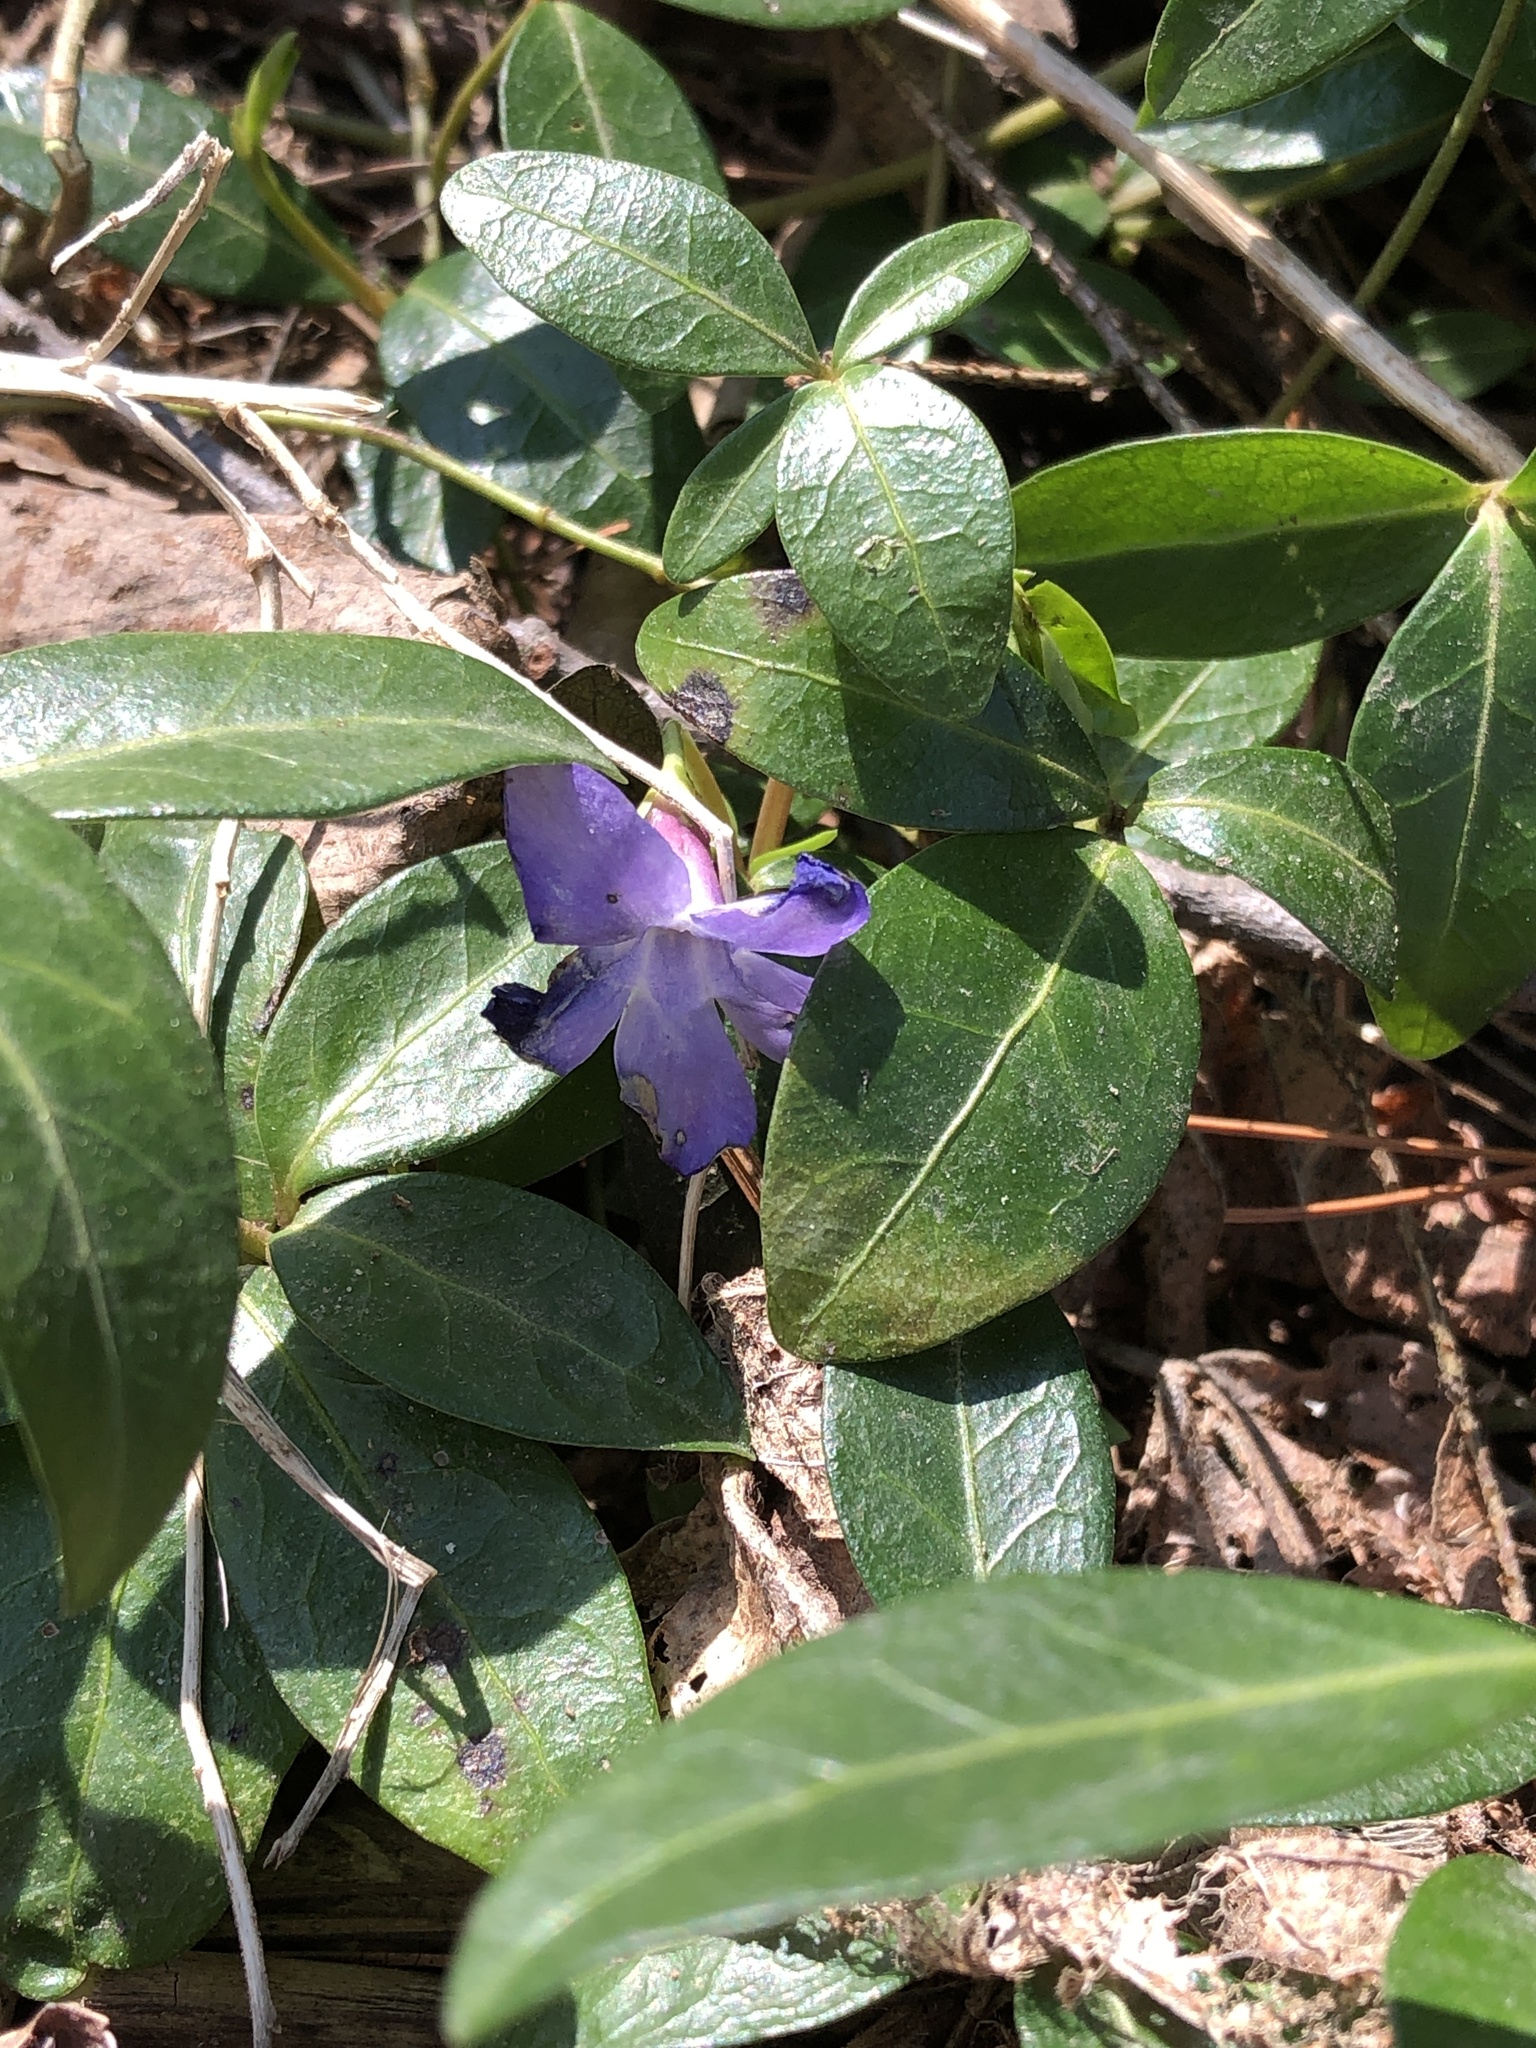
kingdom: Plantae
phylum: Tracheophyta
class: Magnoliopsida
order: Gentianales
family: Apocynaceae
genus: Vinca
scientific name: Vinca minor
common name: Lesser periwinkle
